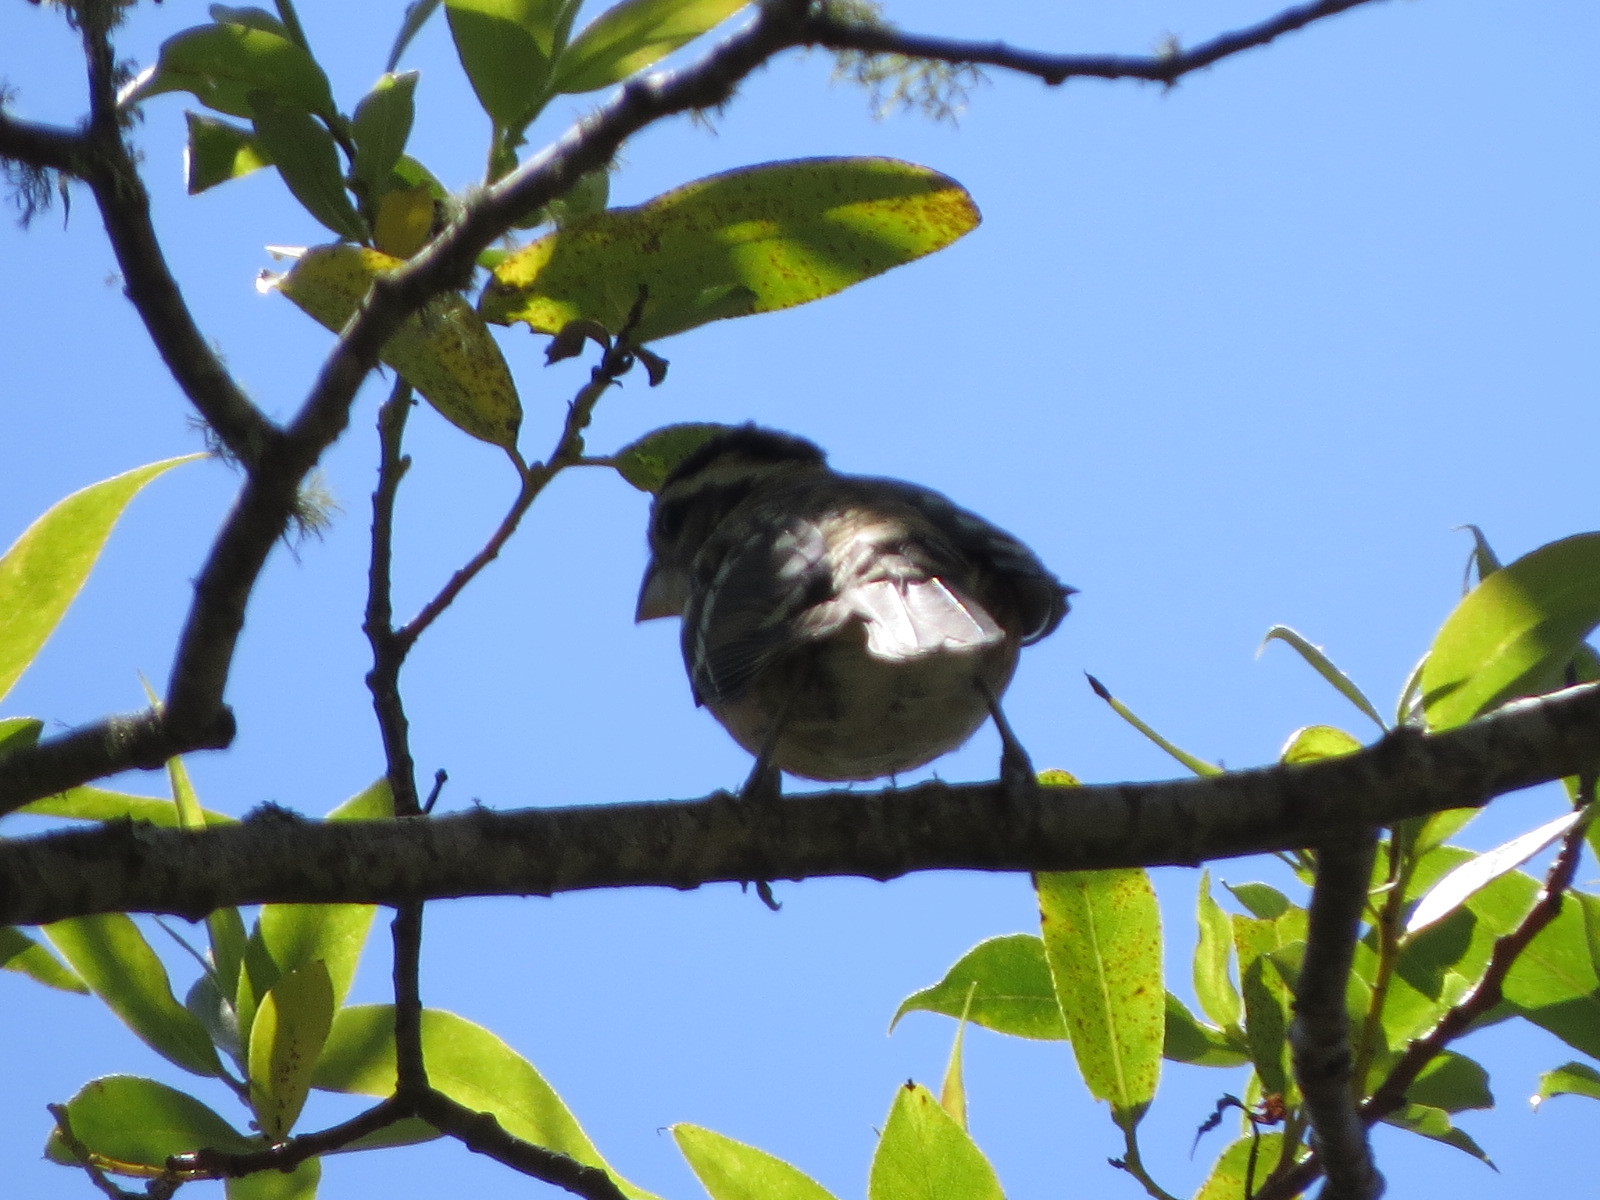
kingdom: Animalia
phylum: Chordata
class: Aves
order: Passeriformes
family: Cardinalidae
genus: Pheucticus
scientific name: Pheucticus melanocephalus
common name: Black-headed grosbeak
